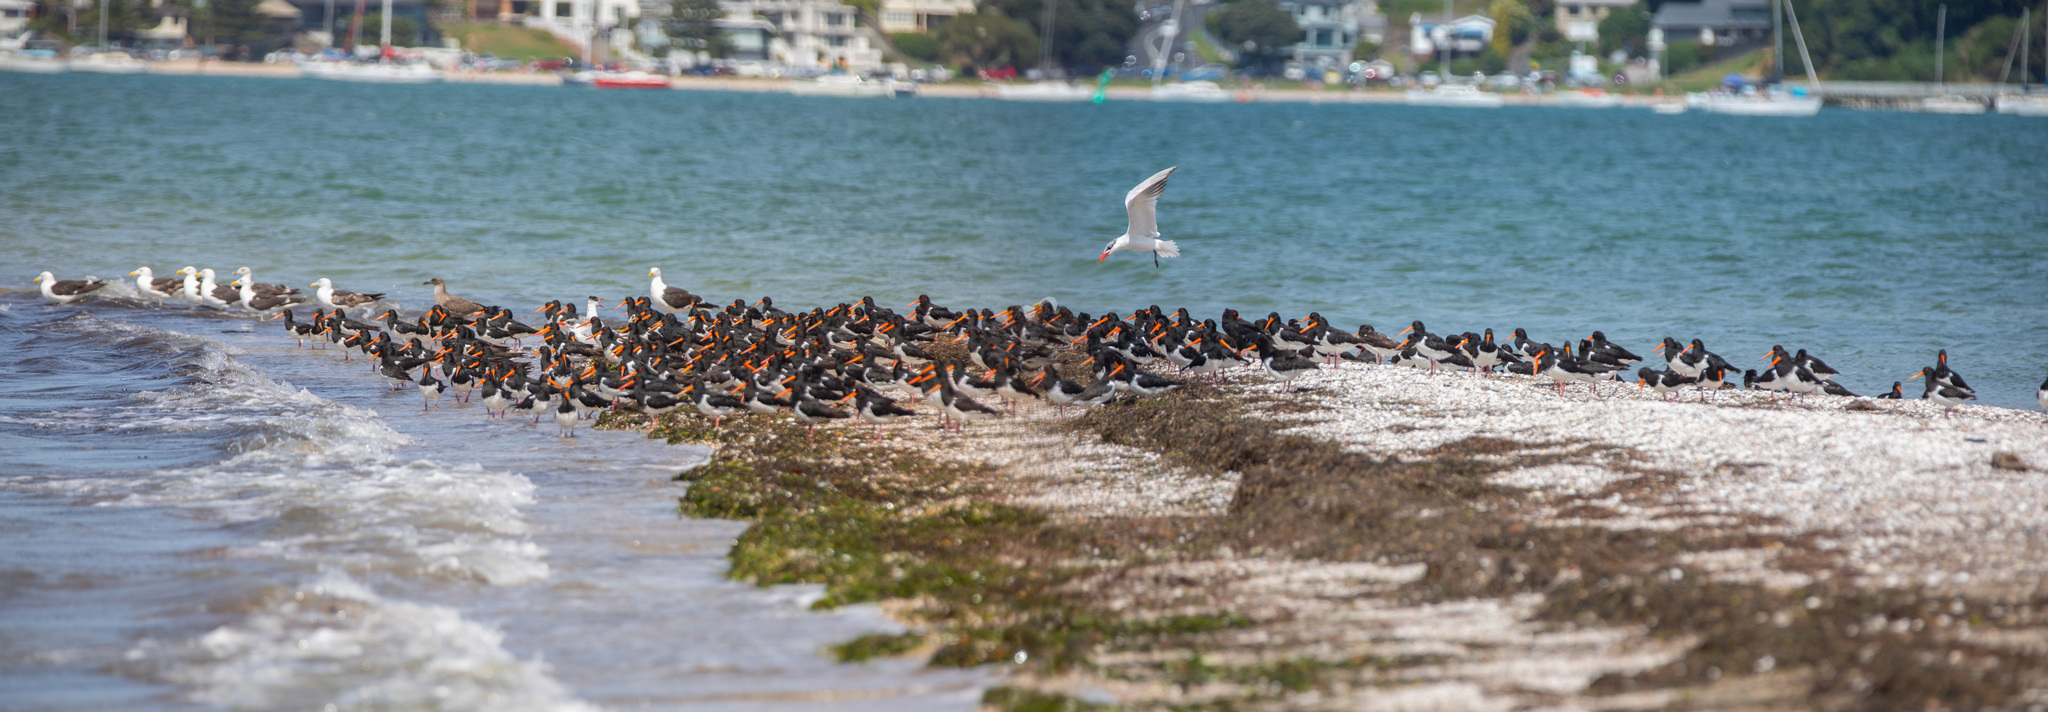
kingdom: Animalia
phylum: Chordata
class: Aves
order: Charadriiformes
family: Haematopodidae
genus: Haematopus
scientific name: Haematopus finschi
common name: South island oystercatcher
